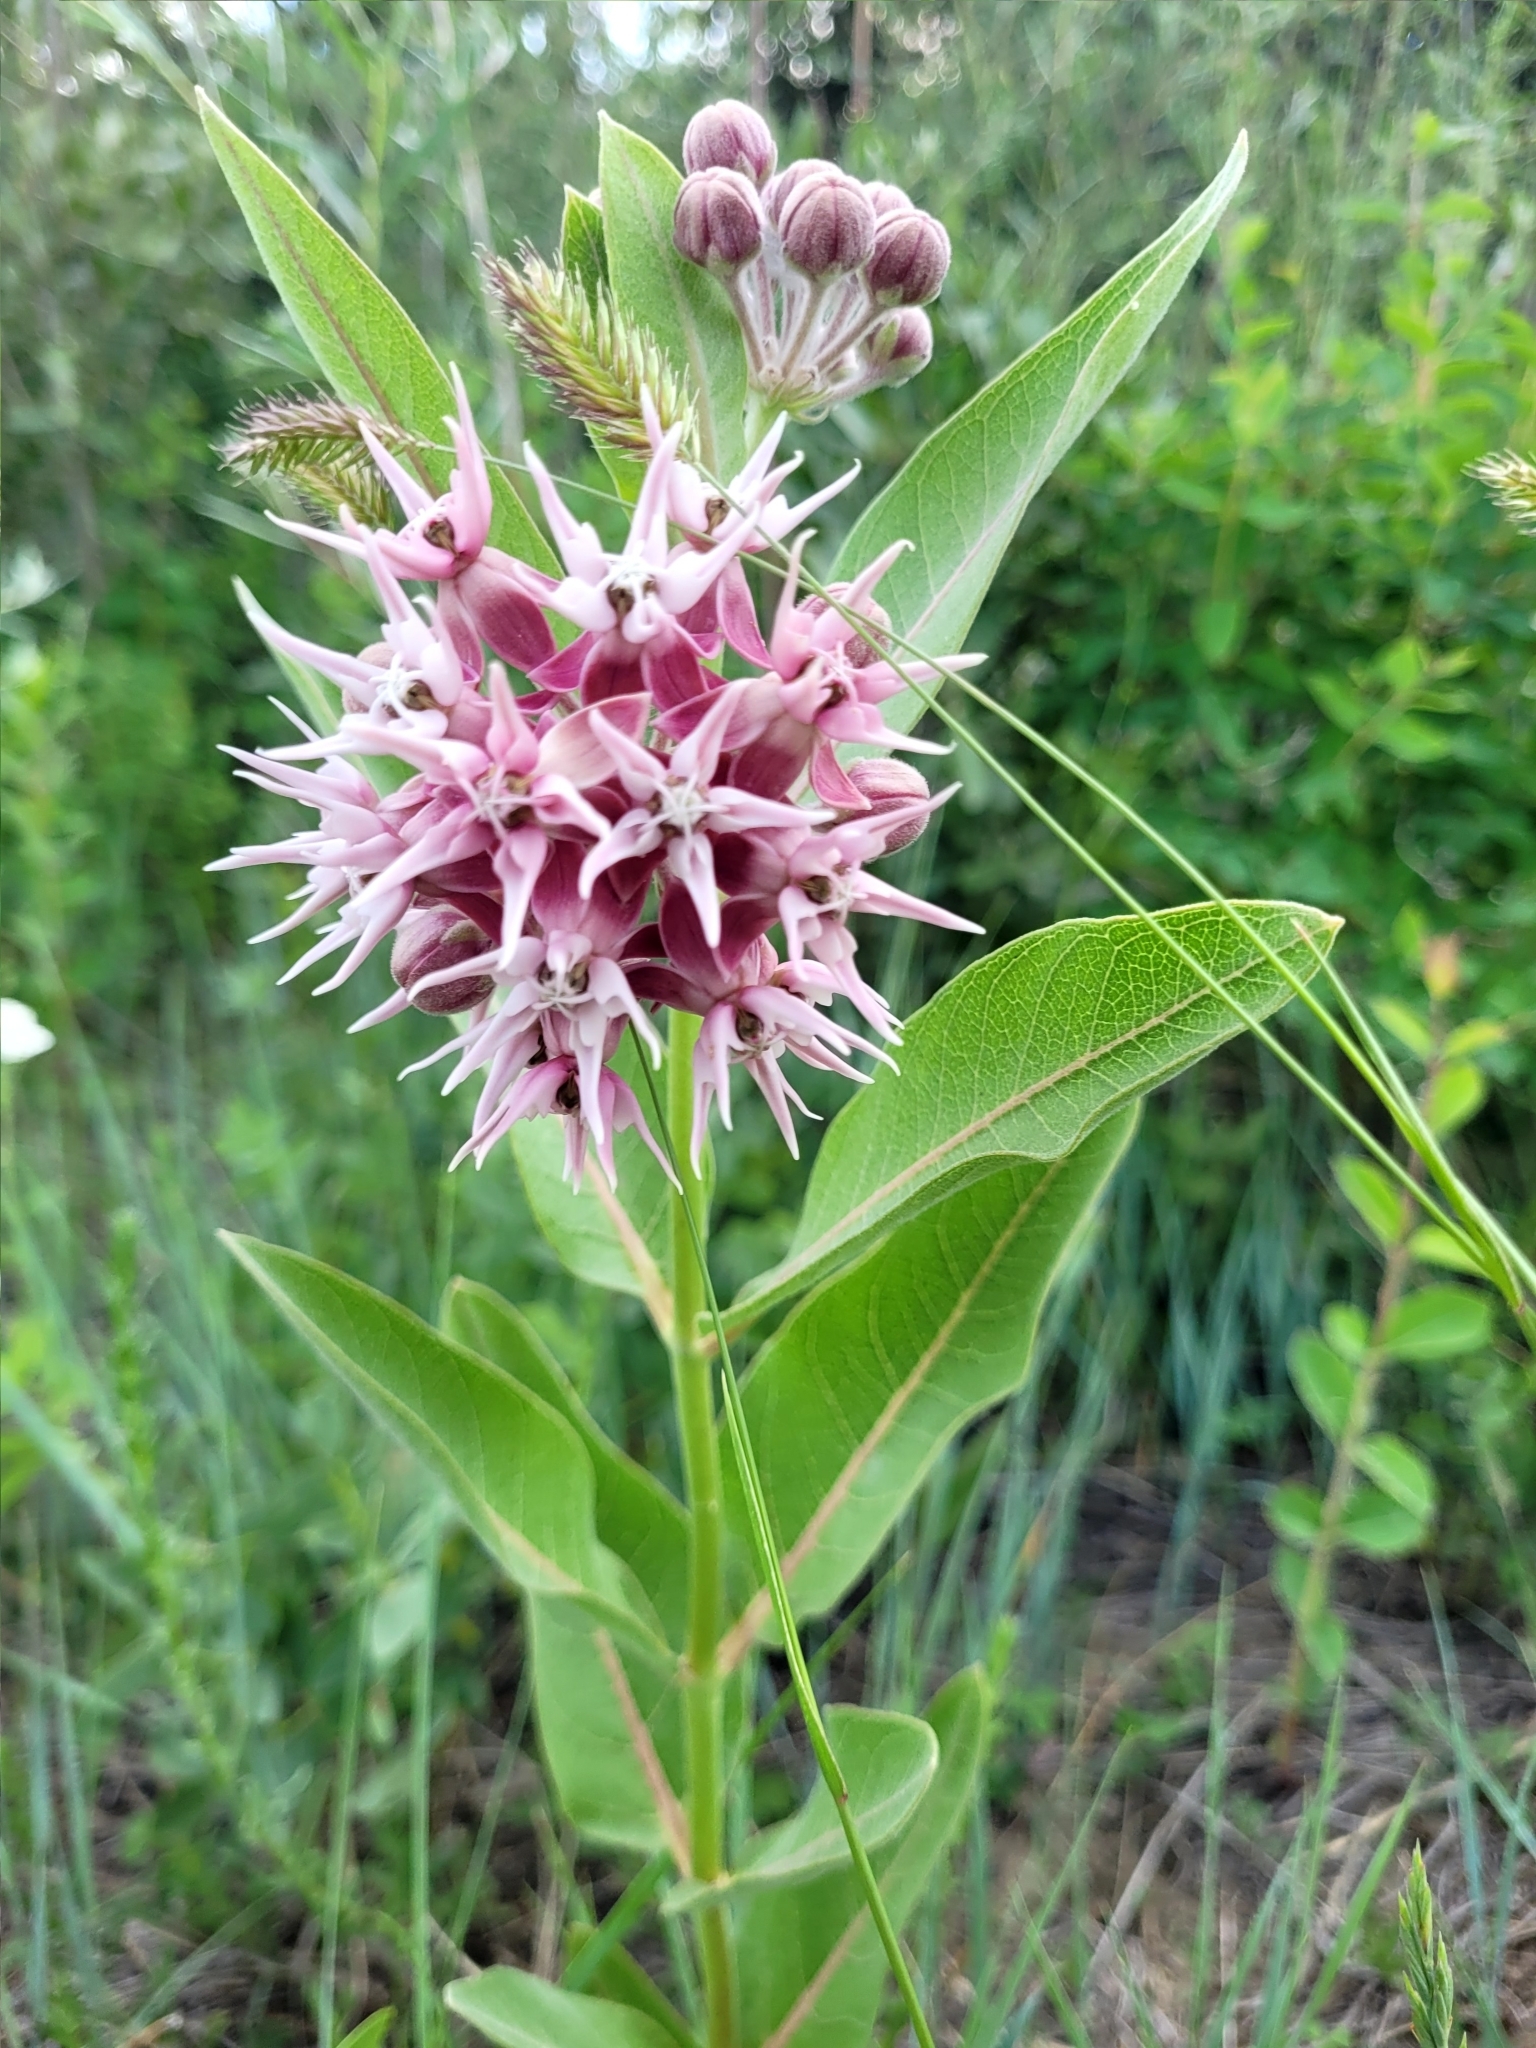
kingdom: Plantae
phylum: Tracheophyta
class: Magnoliopsida
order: Gentianales
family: Apocynaceae
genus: Asclepias
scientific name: Asclepias speciosa
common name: Showy milkweed
